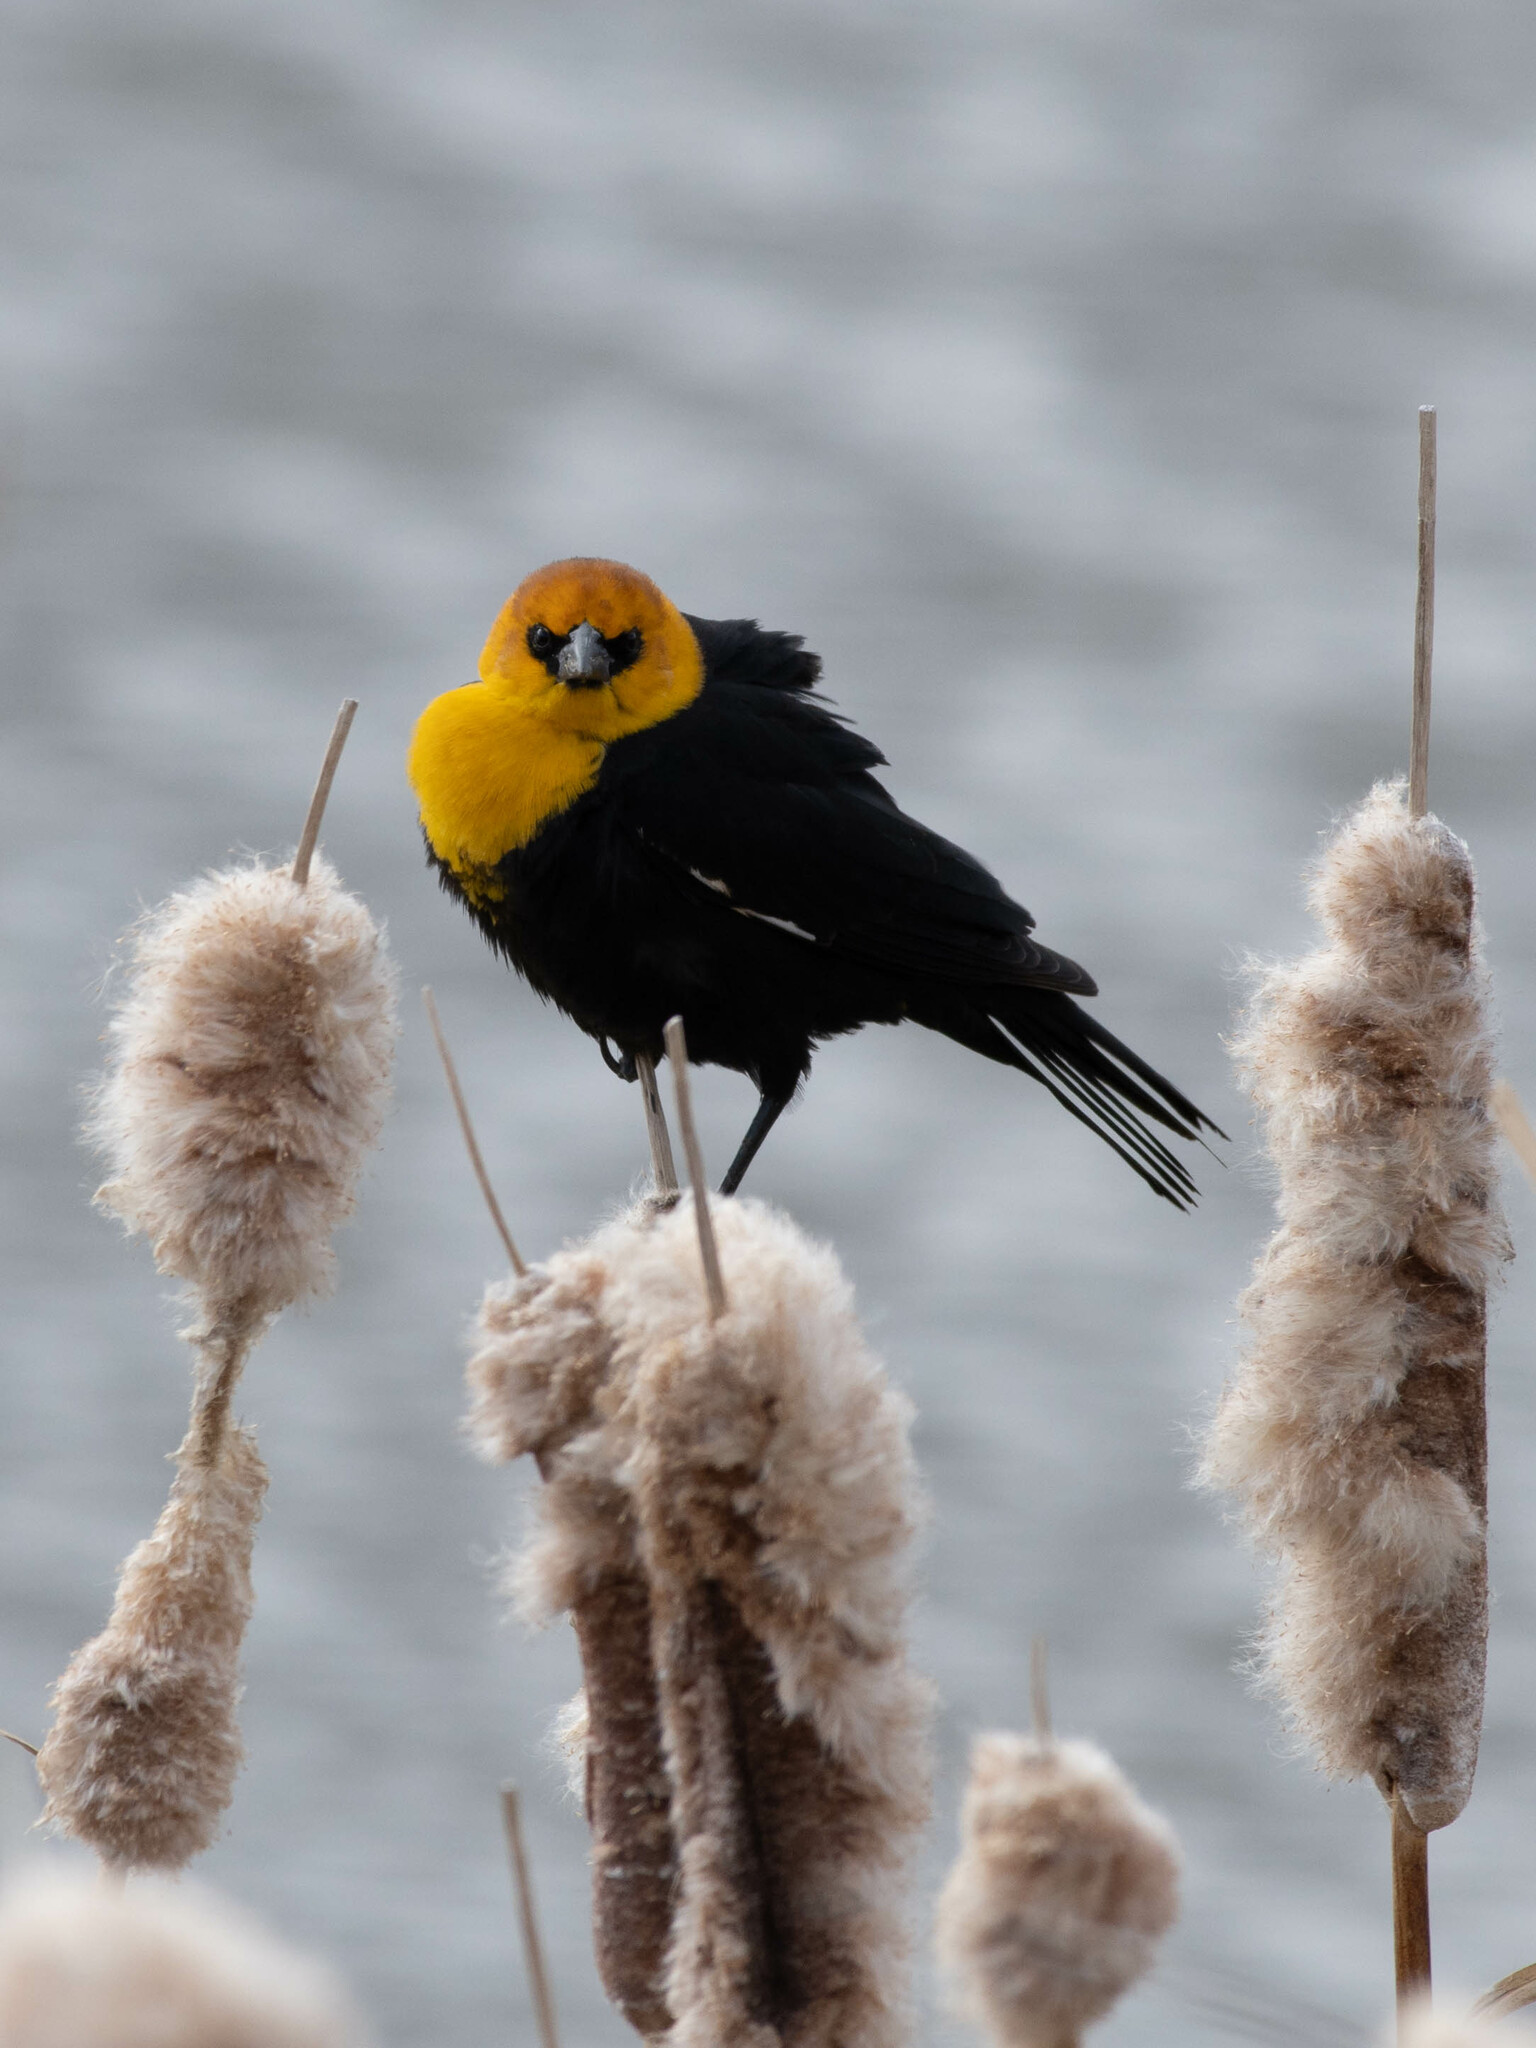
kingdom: Animalia
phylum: Chordata
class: Aves
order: Passeriformes
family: Icteridae
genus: Xanthocephalus
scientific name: Xanthocephalus xanthocephalus
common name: Yellow-headed blackbird
